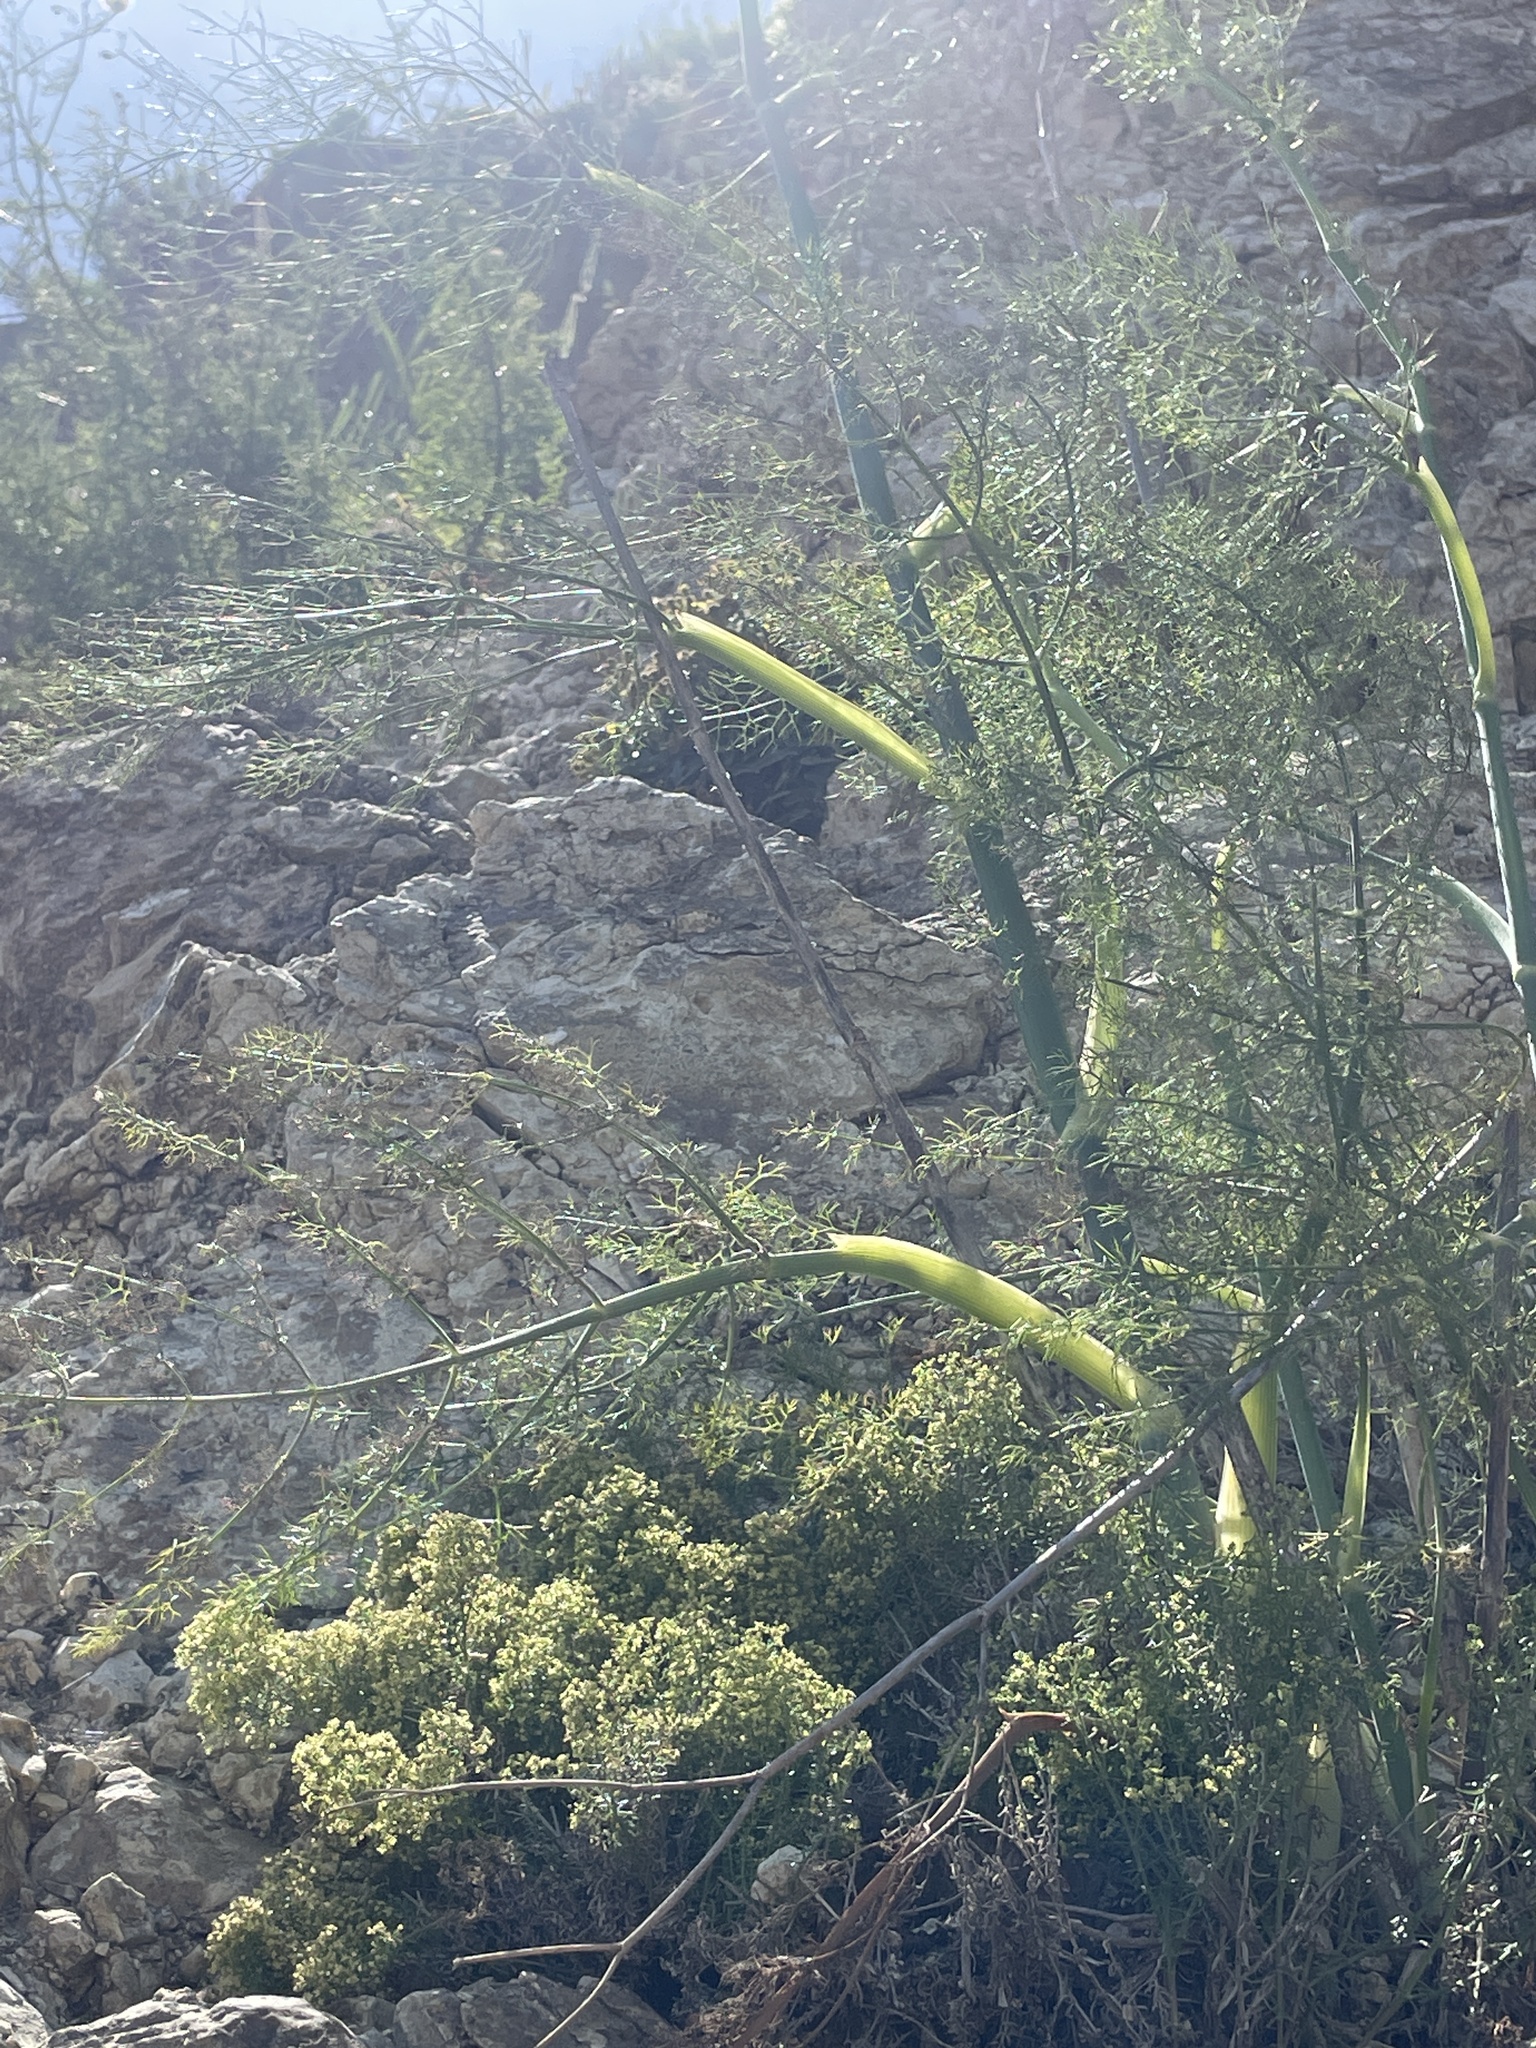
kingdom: Plantae
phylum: Tracheophyta
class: Magnoliopsida
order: Apiales
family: Apiaceae
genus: Foeniculum
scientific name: Foeniculum vulgare
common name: Fennel
